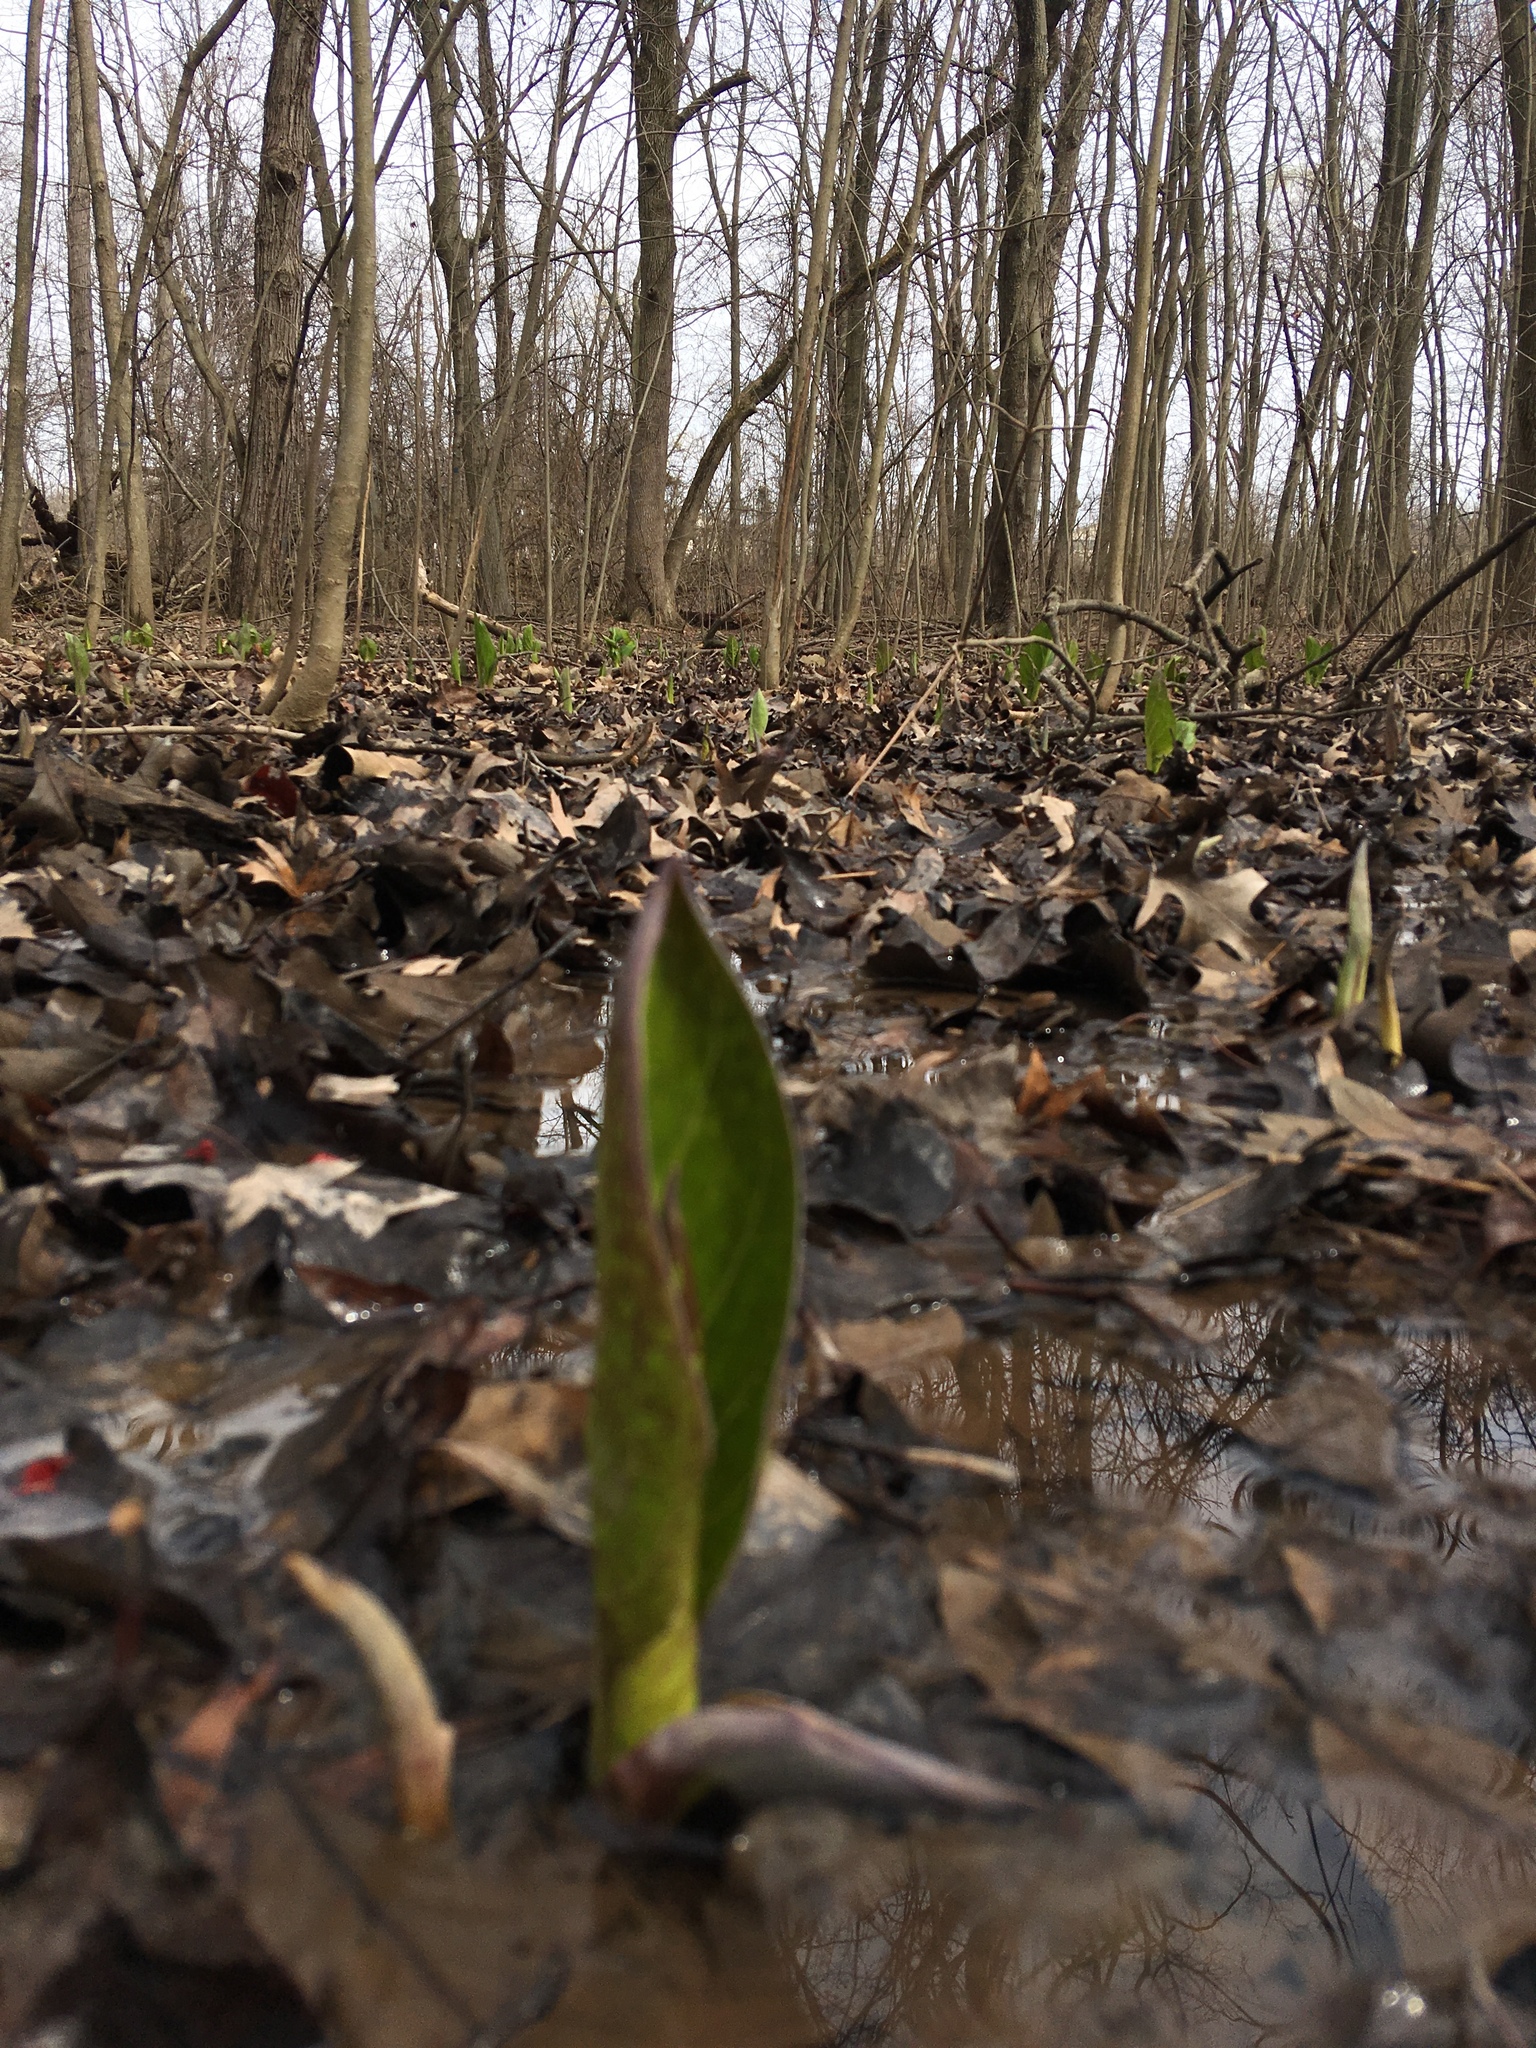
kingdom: Plantae
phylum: Tracheophyta
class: Liliopsida
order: Alismatales
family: Araceae
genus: Symplocarpus
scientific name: Symplocarpus foetidus
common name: Eastern skunk cabbage
